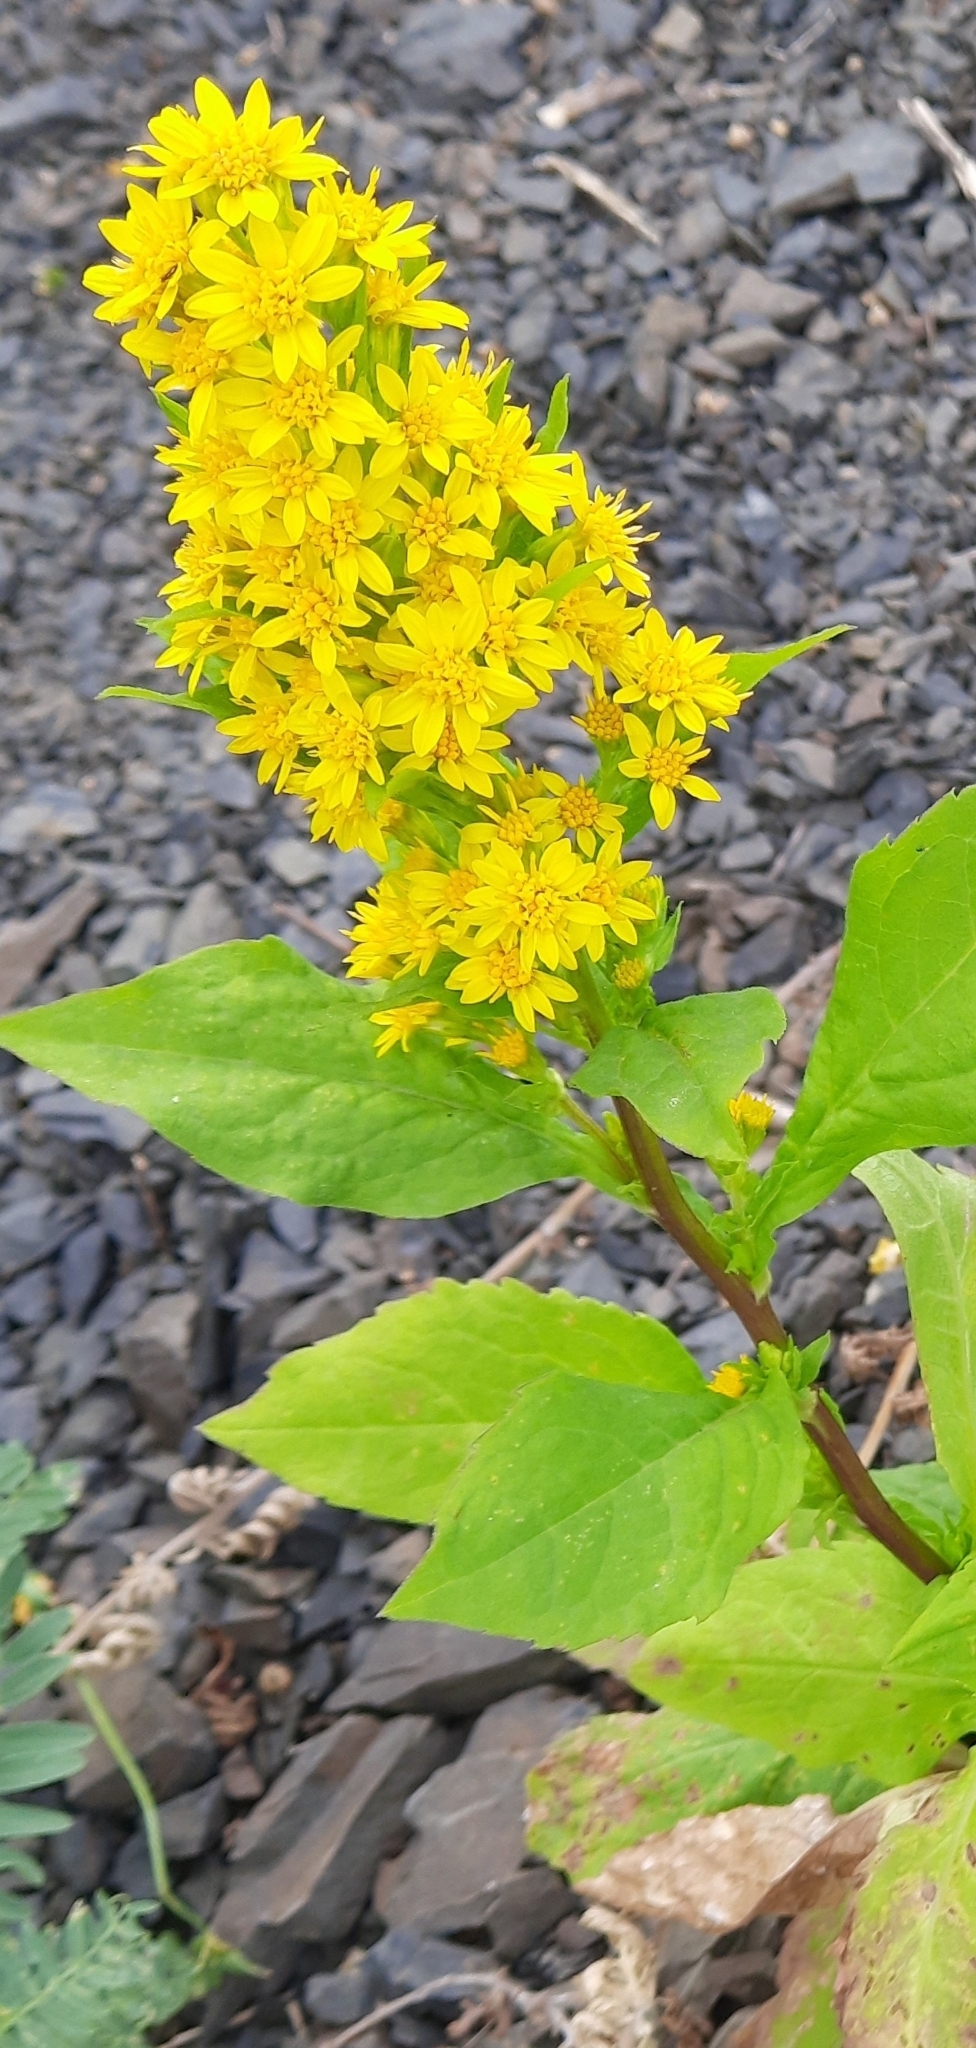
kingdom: Plantae
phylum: Tracheophyta
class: Magnoliopsida
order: Asterales
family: Asteraceae
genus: Solidago
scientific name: Solidago virgaurea
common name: Goldenrod
